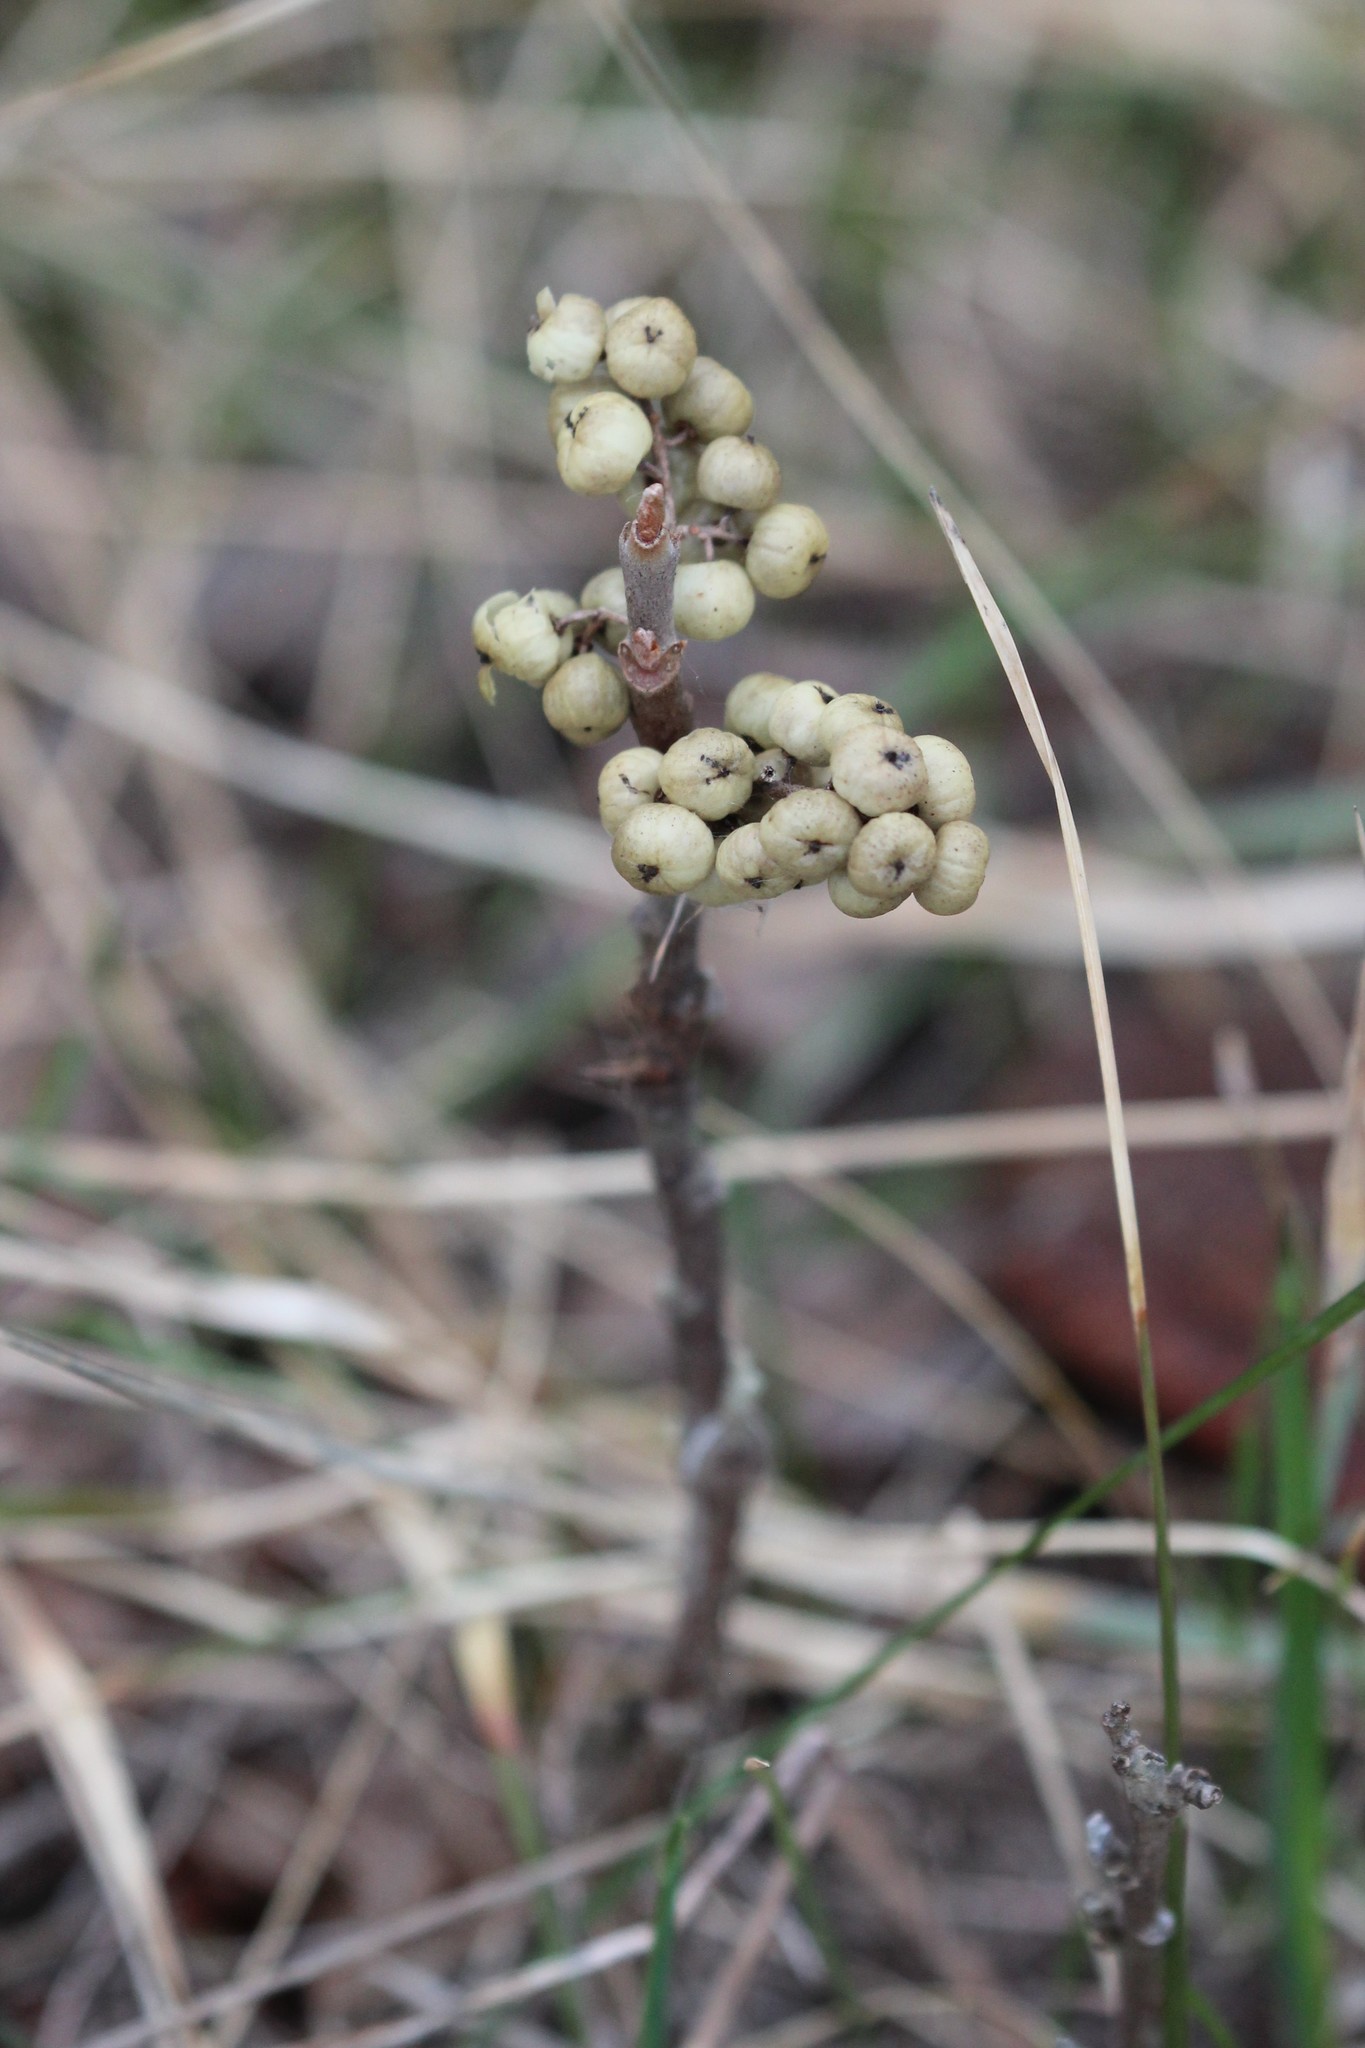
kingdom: Plantae
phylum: Tracheophyta
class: Magnoliopsida
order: Sapindales
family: Anacardiaceae
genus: Toxicodendron
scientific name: Toxicodendron rydbergii
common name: Rydberg's poison-ivy
